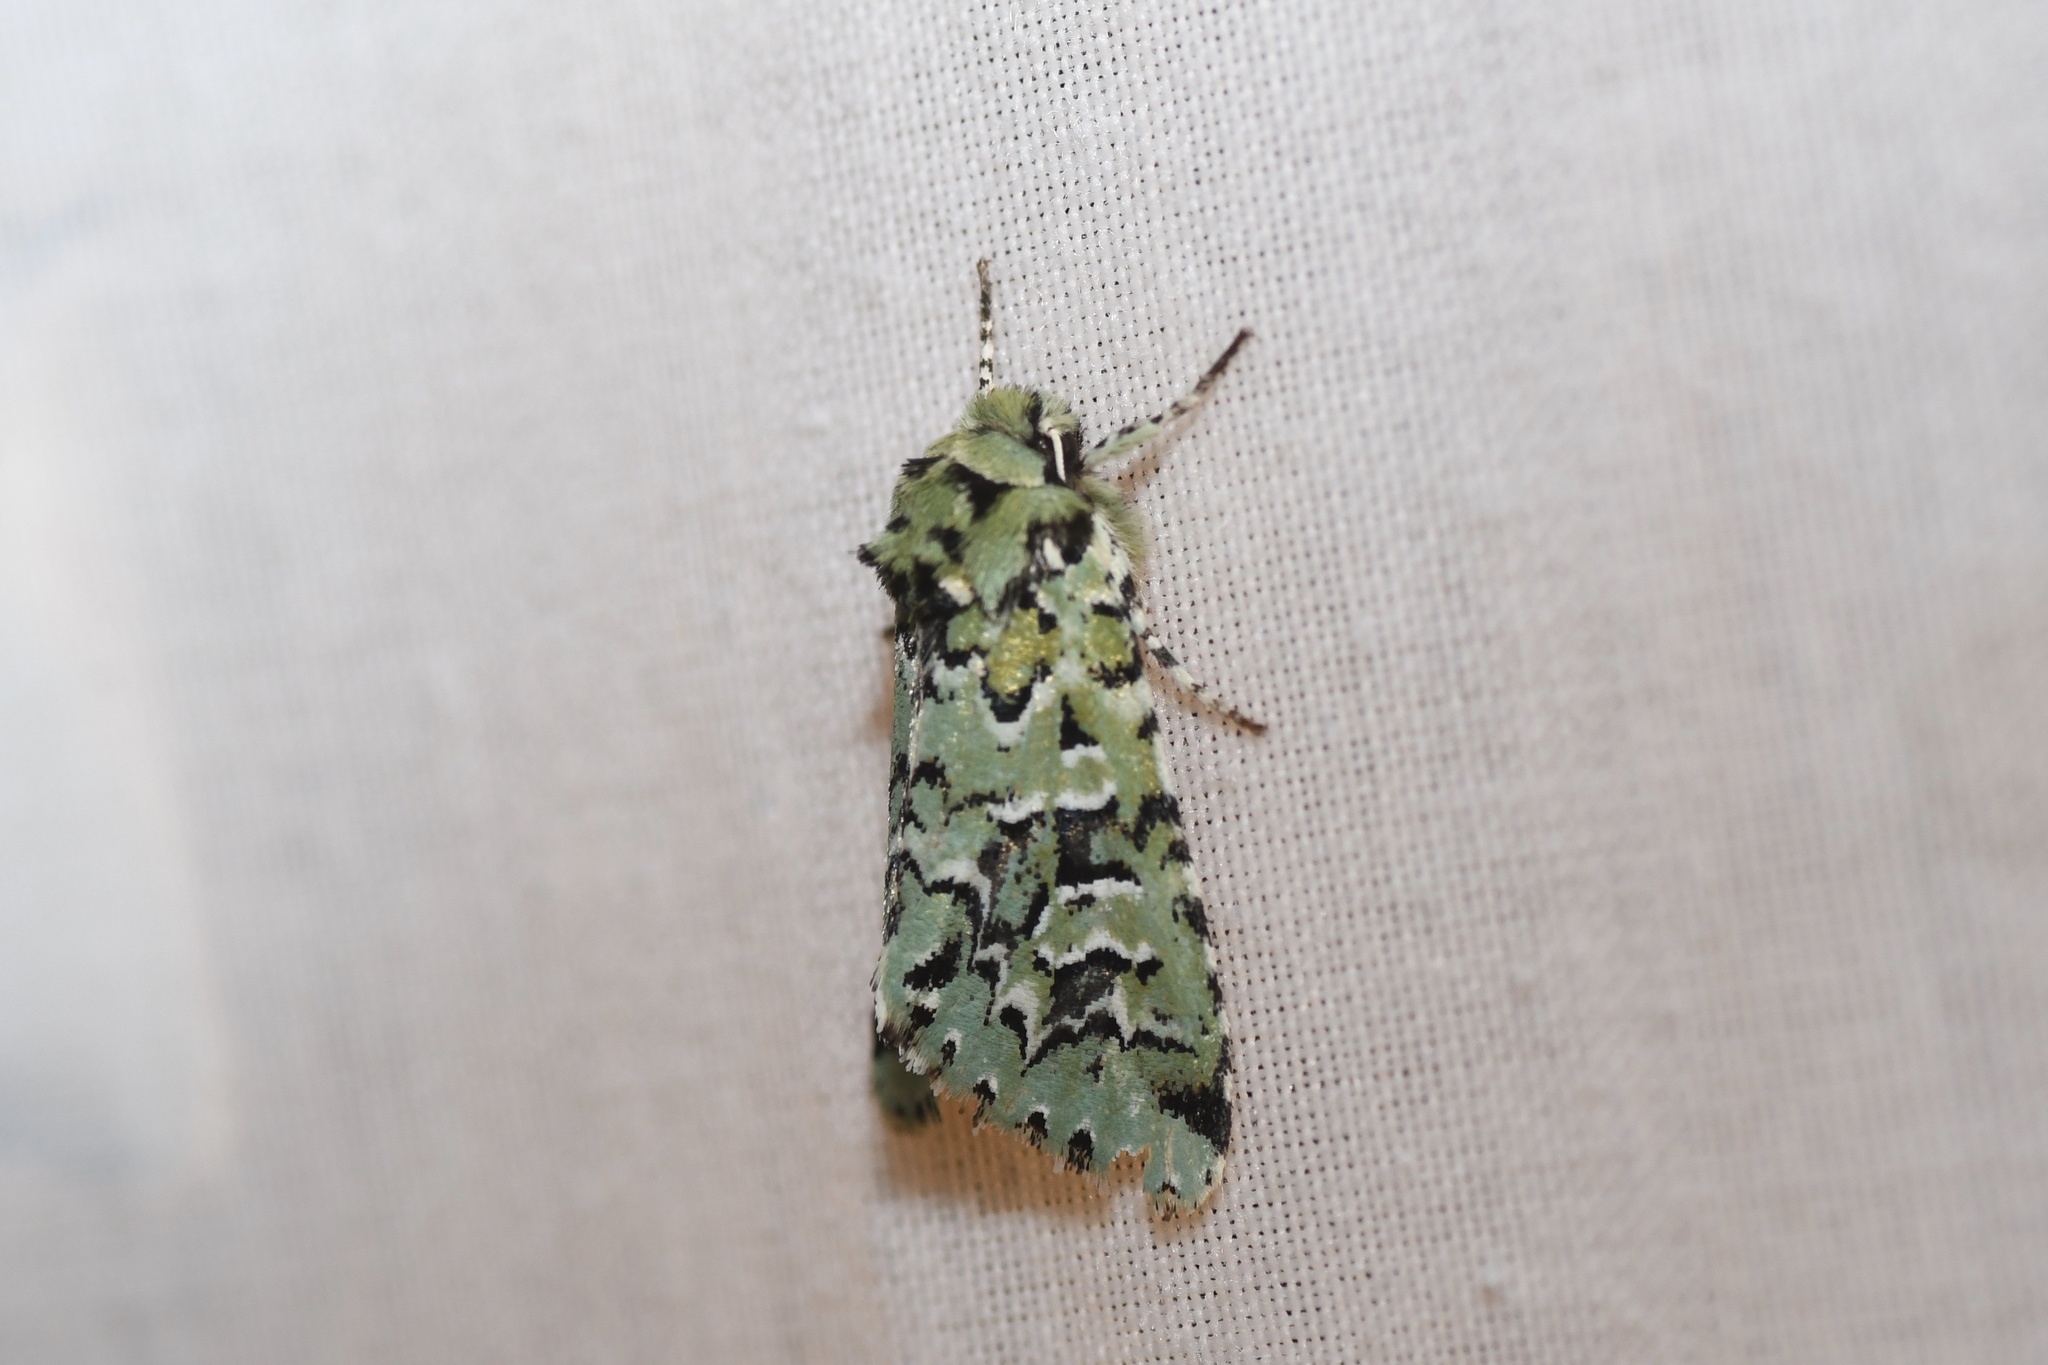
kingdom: Animalia
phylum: Arthropoda
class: Insecta
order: Lepidoptera
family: Noctuidae
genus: Feralia
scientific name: Feralia comstocki
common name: Comstock's sallow
